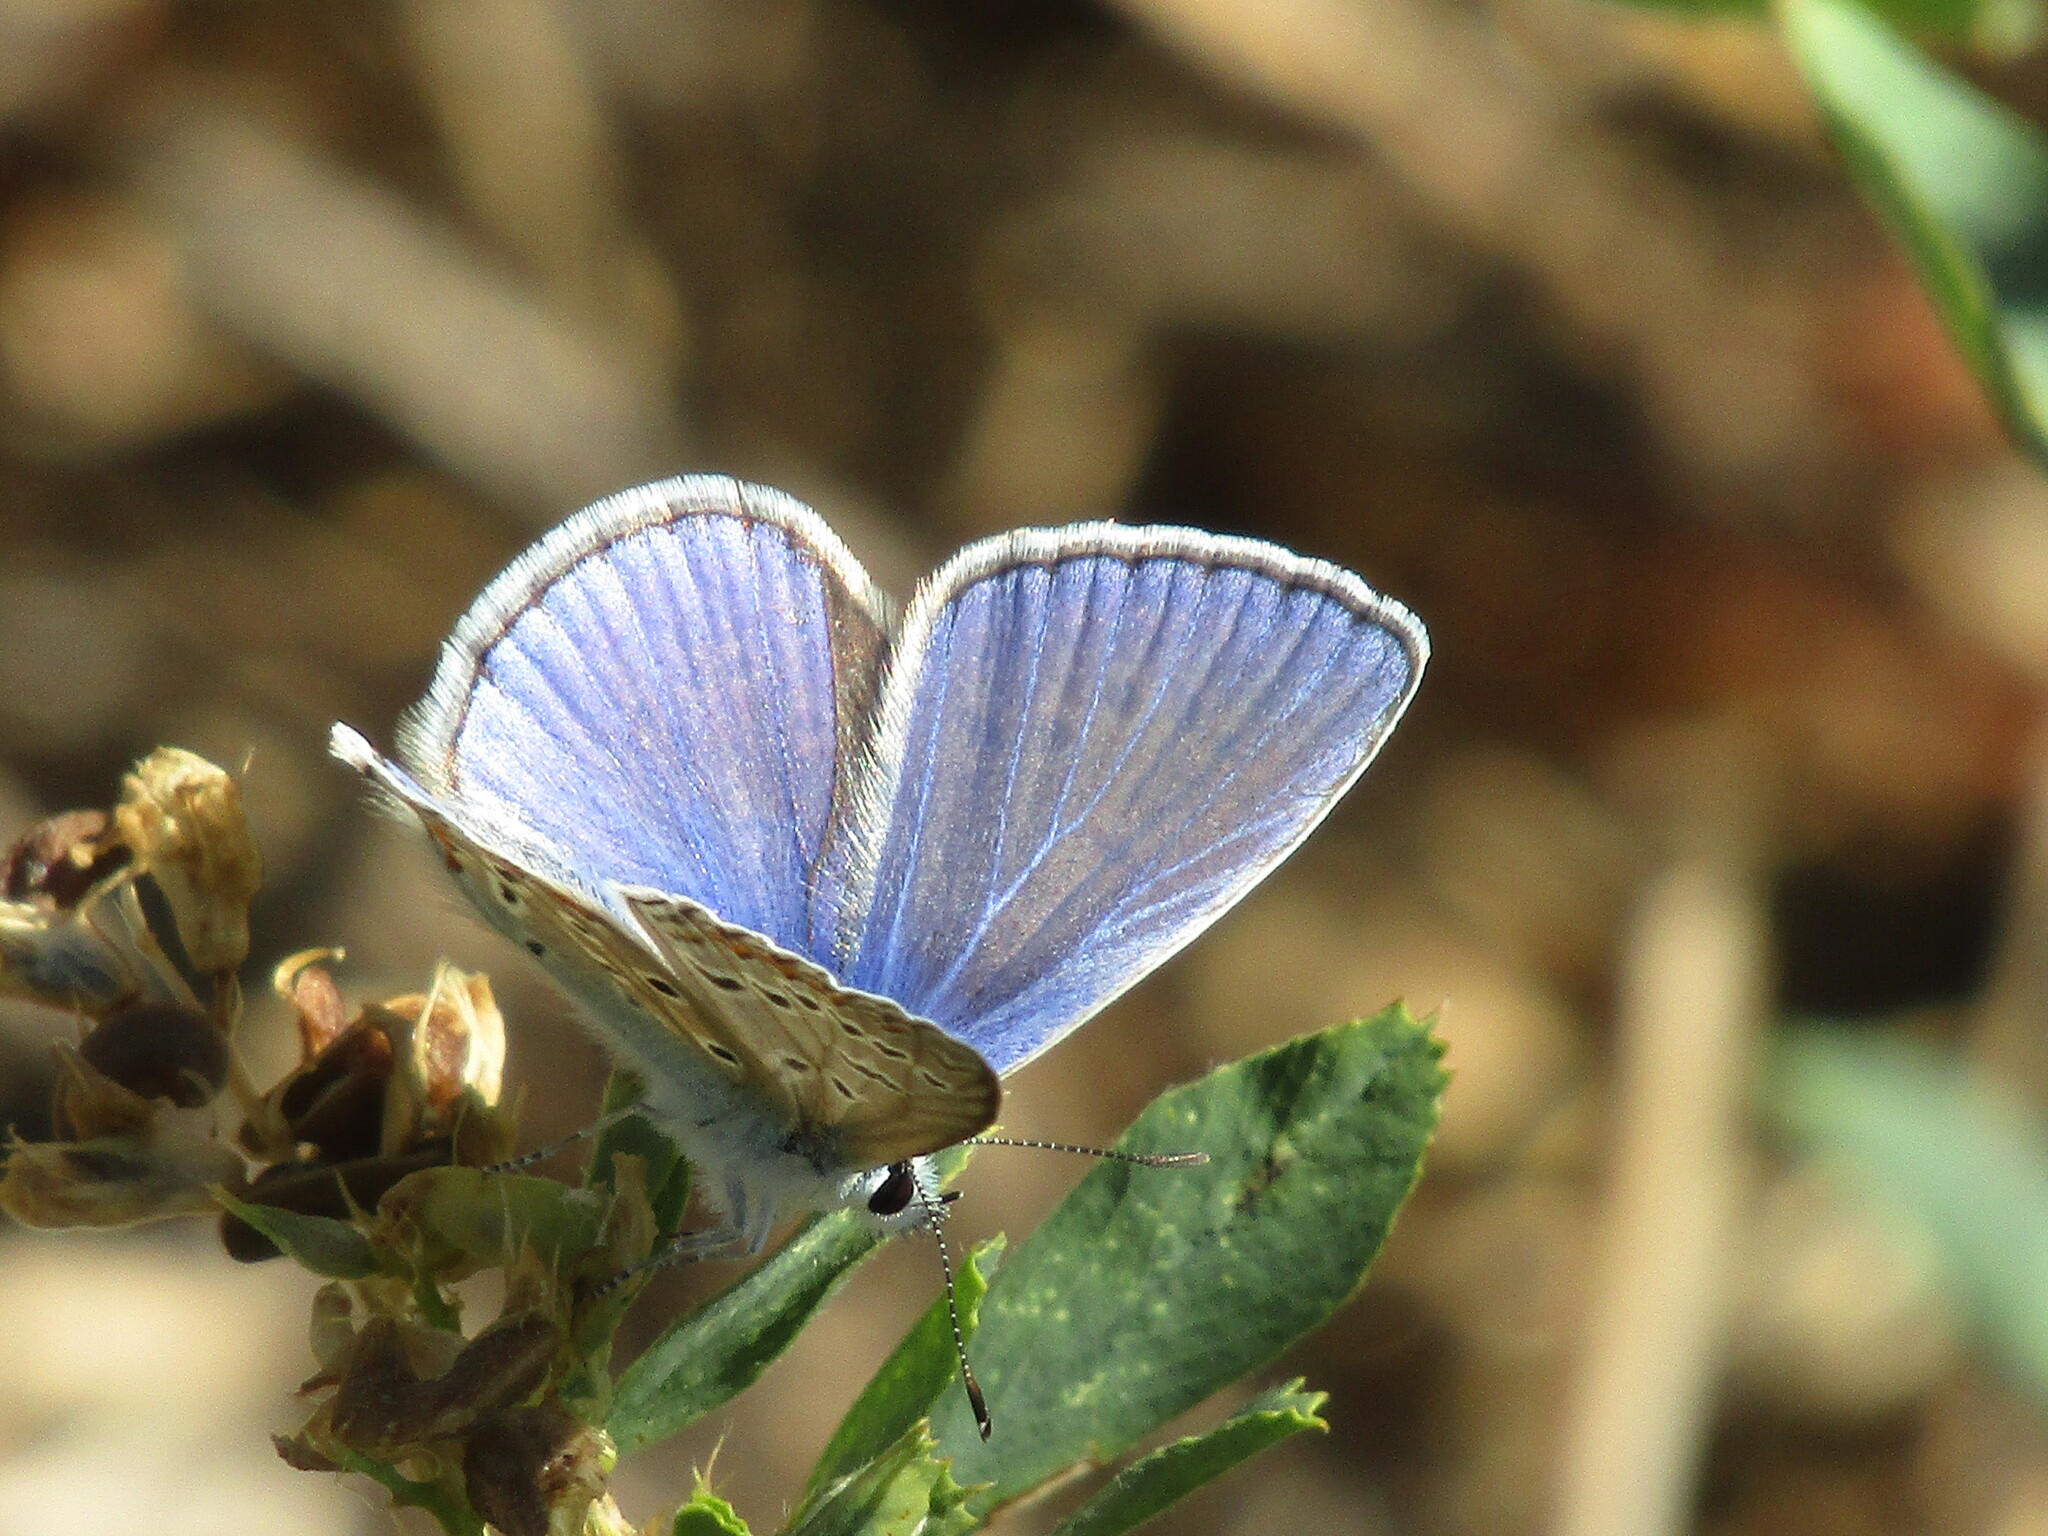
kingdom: Animalia
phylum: Arthropoda
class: Insecta
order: Lepidoptera
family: Lycaenidae
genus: Polyommatus
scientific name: Polyommatus icarus
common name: Common blue
